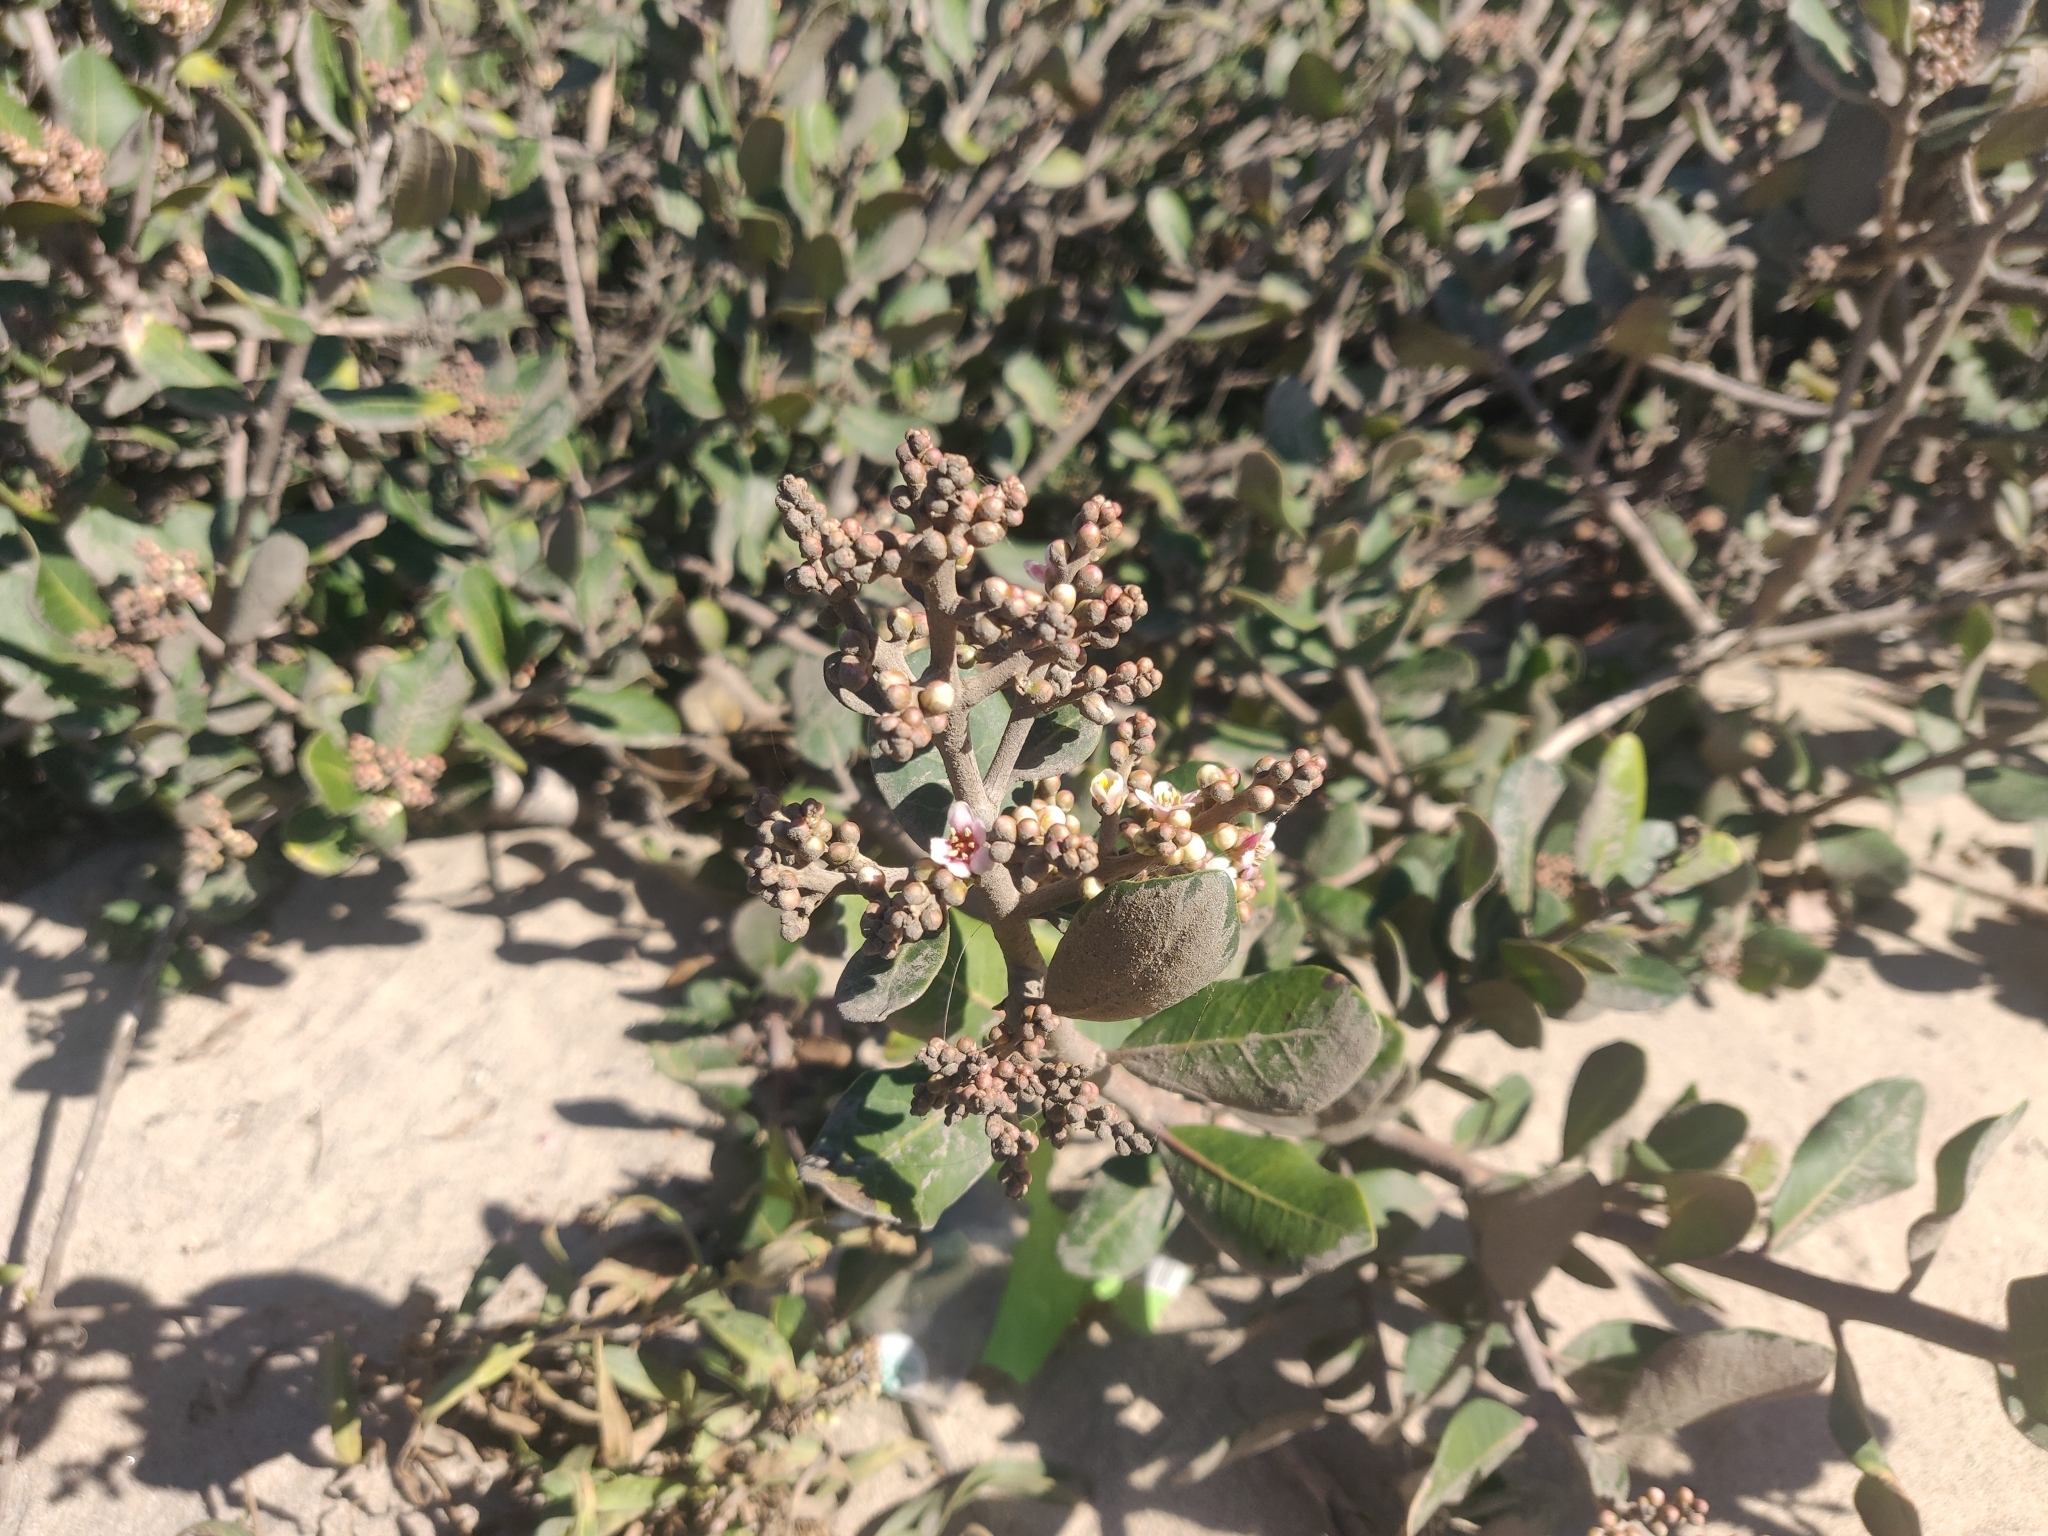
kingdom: Plantae
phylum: Tracheophyta
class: Magnoliopsida
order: Sapindales
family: Anacardiaceae
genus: Rhus
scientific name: Rhus integrifolia
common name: Lemonade sumac
